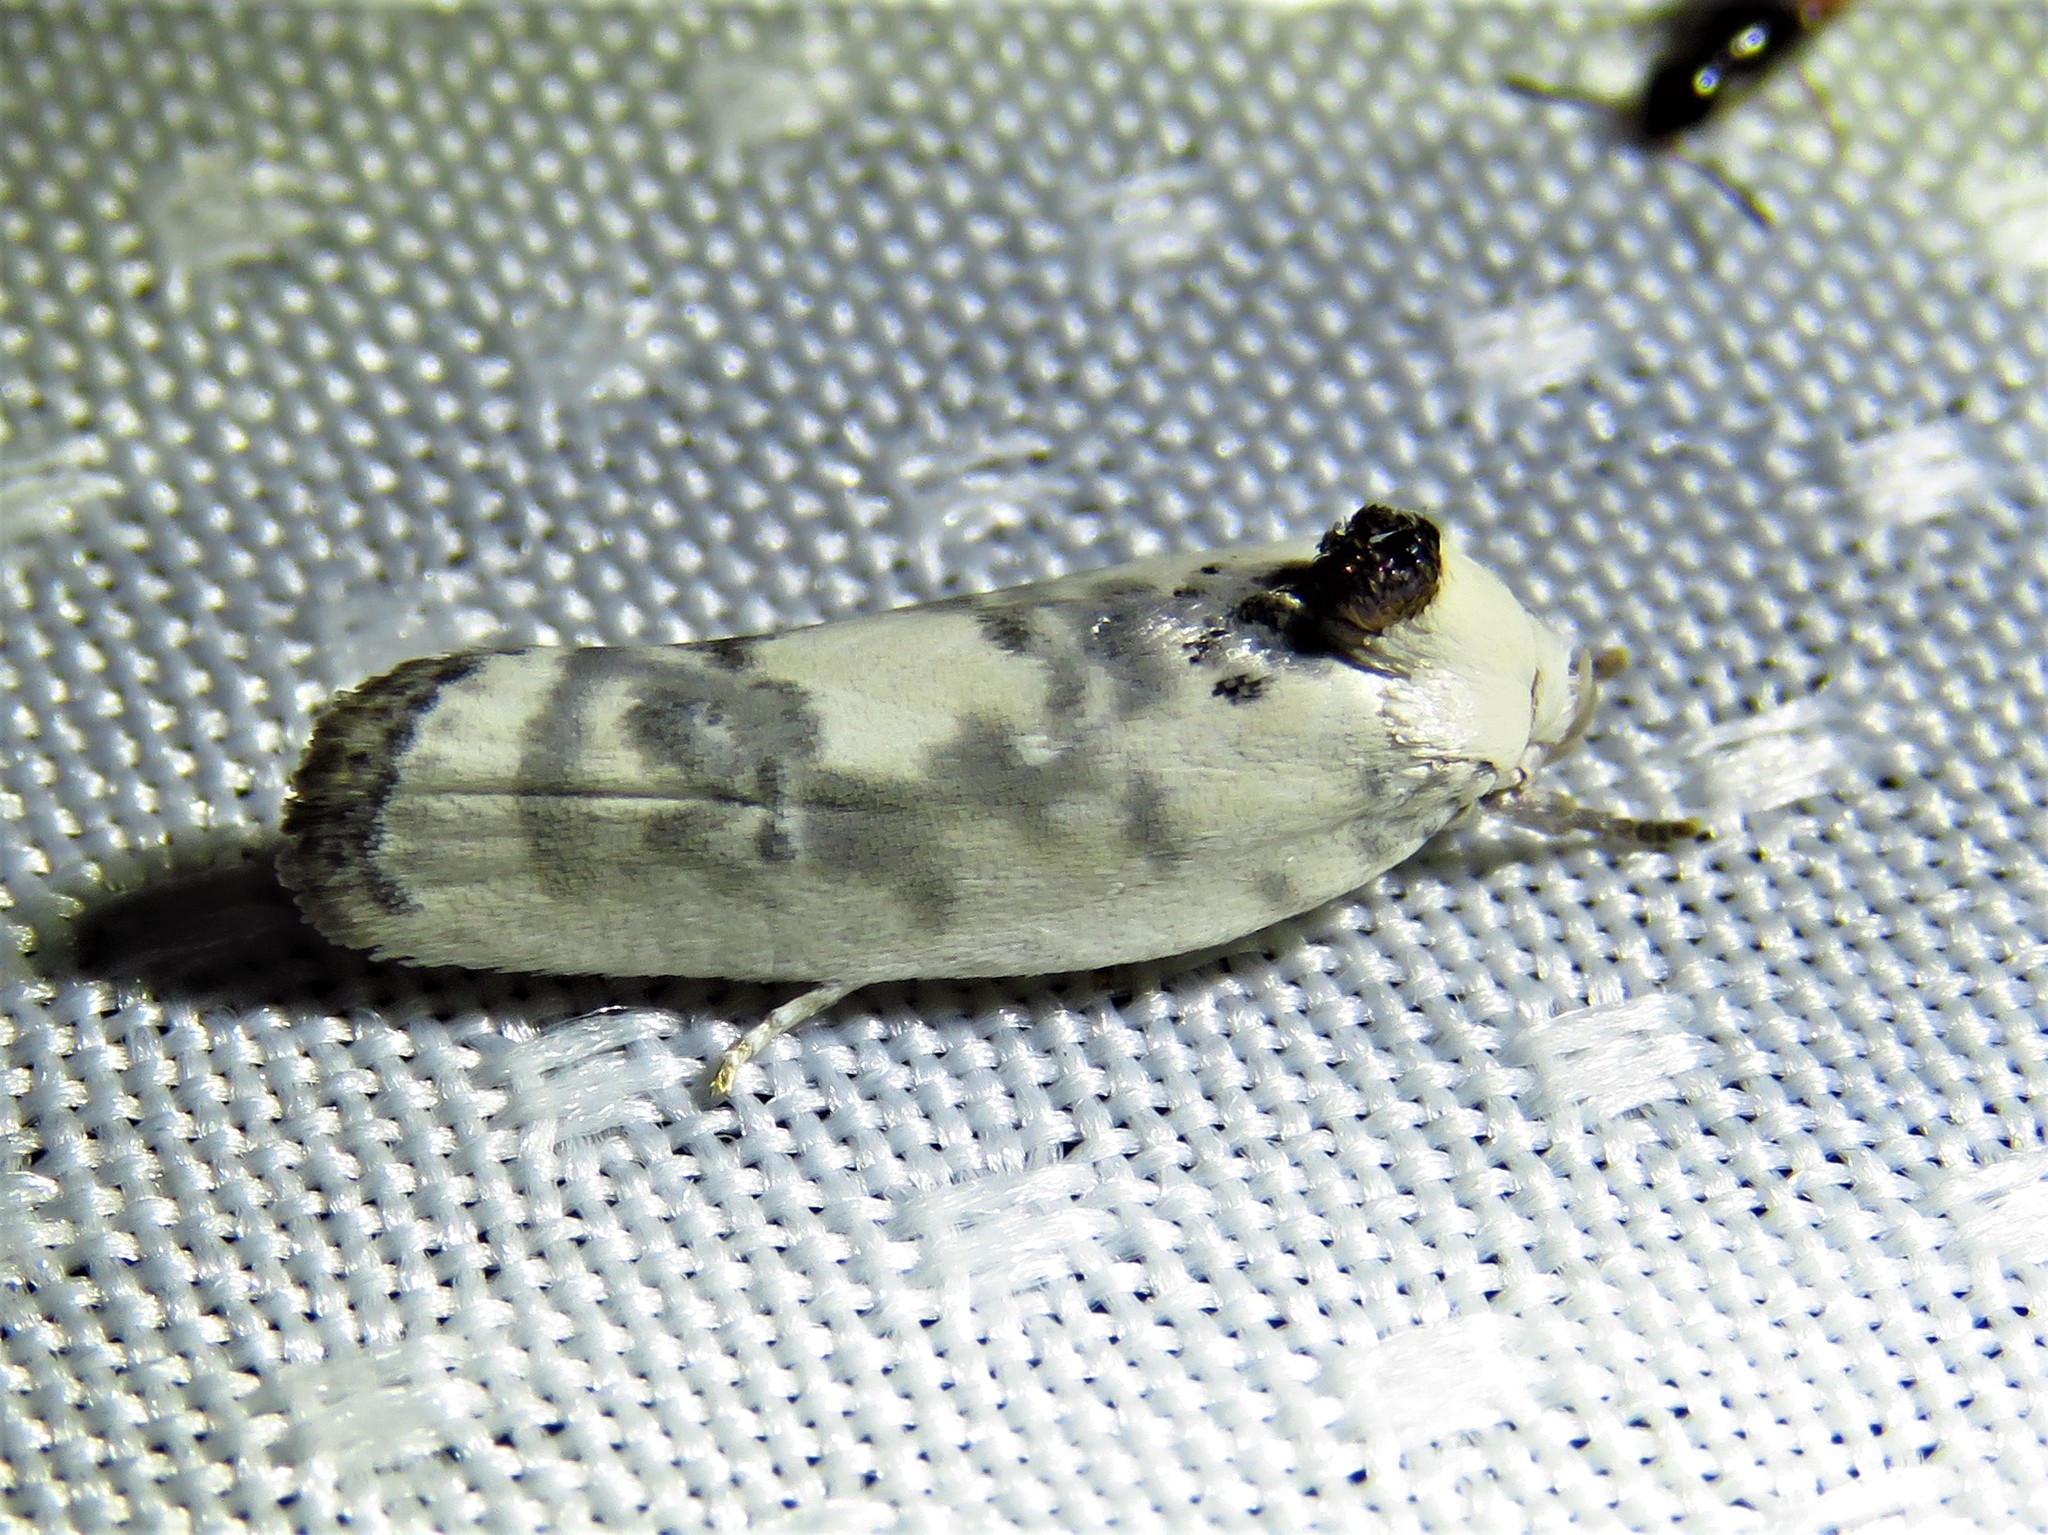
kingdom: Animalia
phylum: Arthropoda
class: Insecta
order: Lepidoptera
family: Depressariidae
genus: Antaeotricha
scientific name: Antaeotricha schlaegeri
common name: Schlaeger's fruitworm moth
